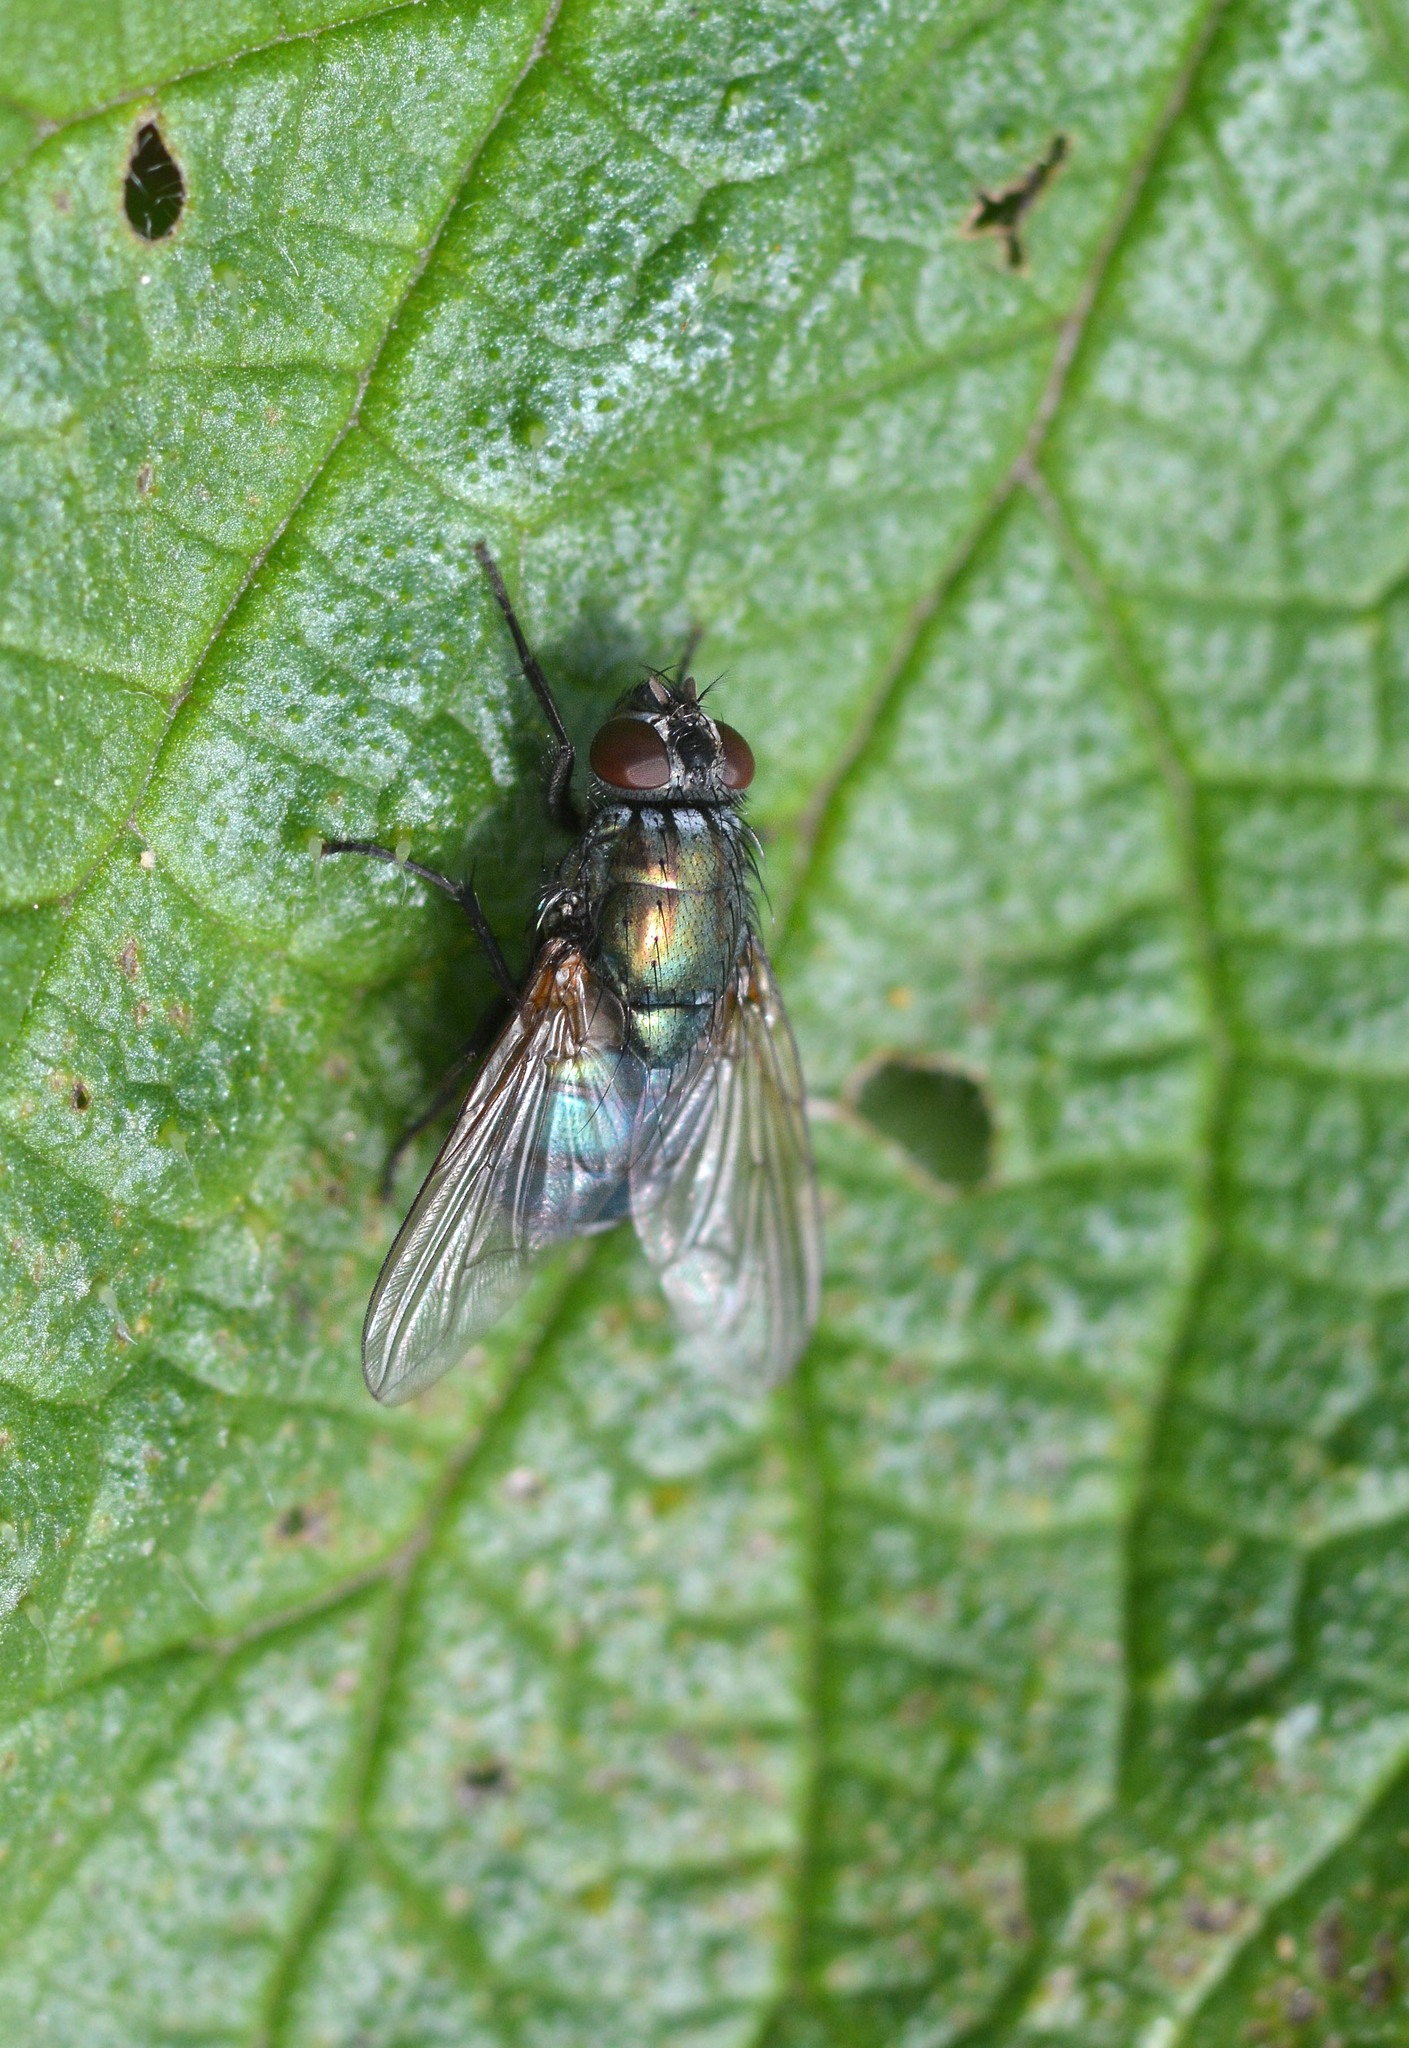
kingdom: Animalia
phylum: Arthropoda
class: Insecta
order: Diptera
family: Muscidae
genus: Dasyphora
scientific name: Dasyphora cyanella
